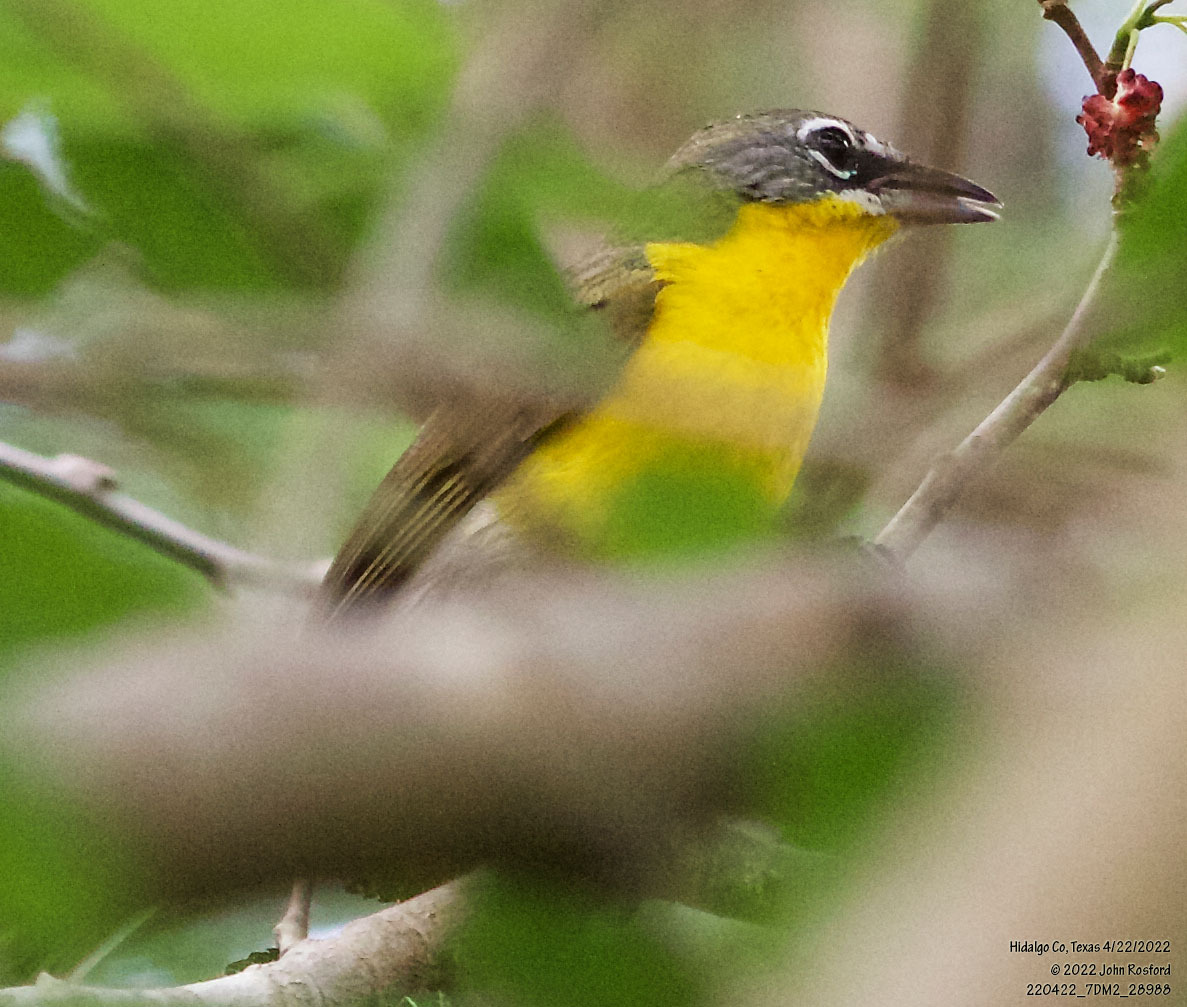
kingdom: Animalia
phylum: Chordata
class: Aves
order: Passeriformes
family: Parulidae
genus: Icteria
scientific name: Icteria virens
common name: Yellow-breasted chat
